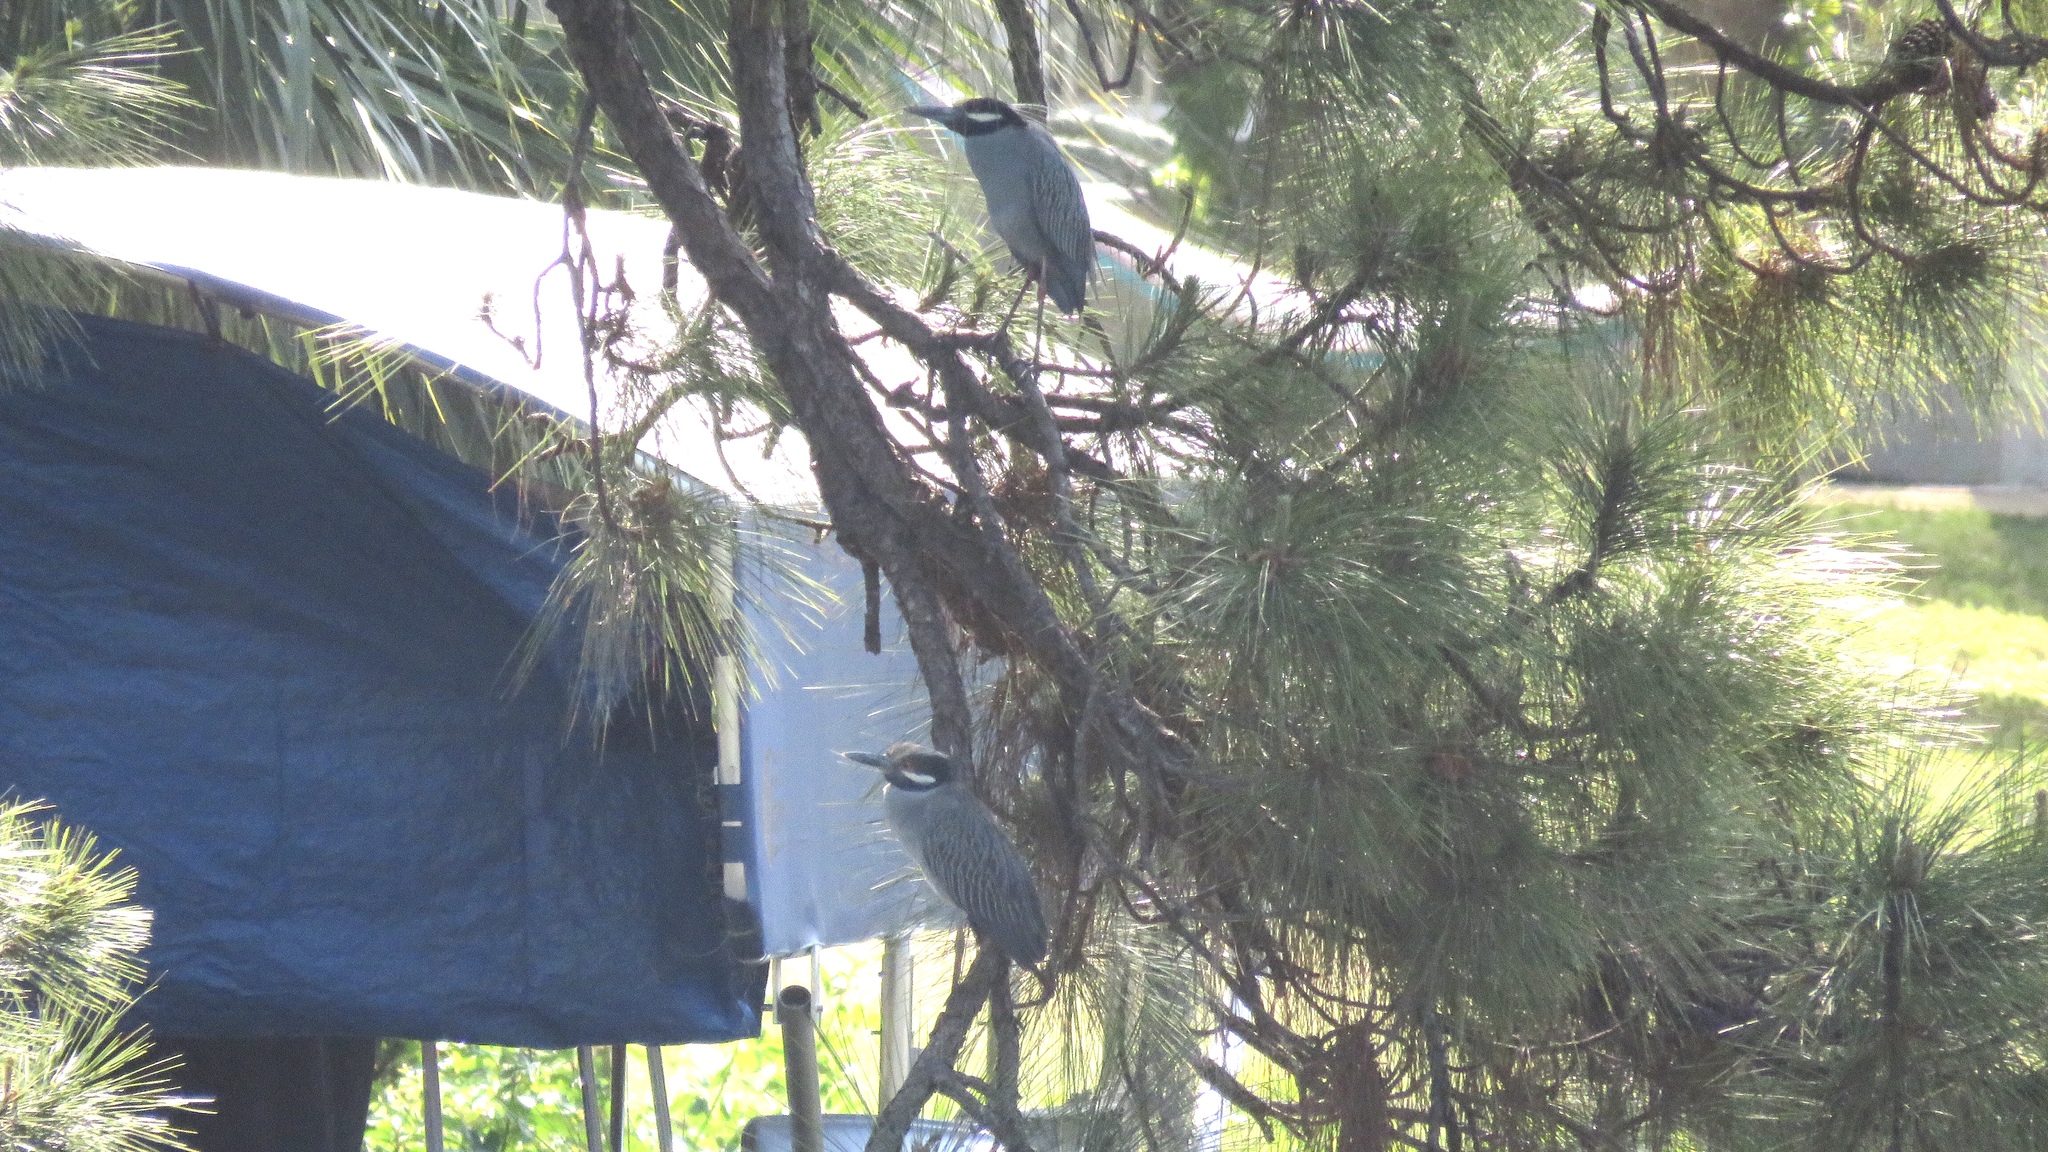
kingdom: Animalia
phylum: Chordata
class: Aves
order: Pelecaniformes
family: Ardeidae
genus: Nyctanassa
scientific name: Nyctanassa violacea
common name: Yellow-crowned night heron
